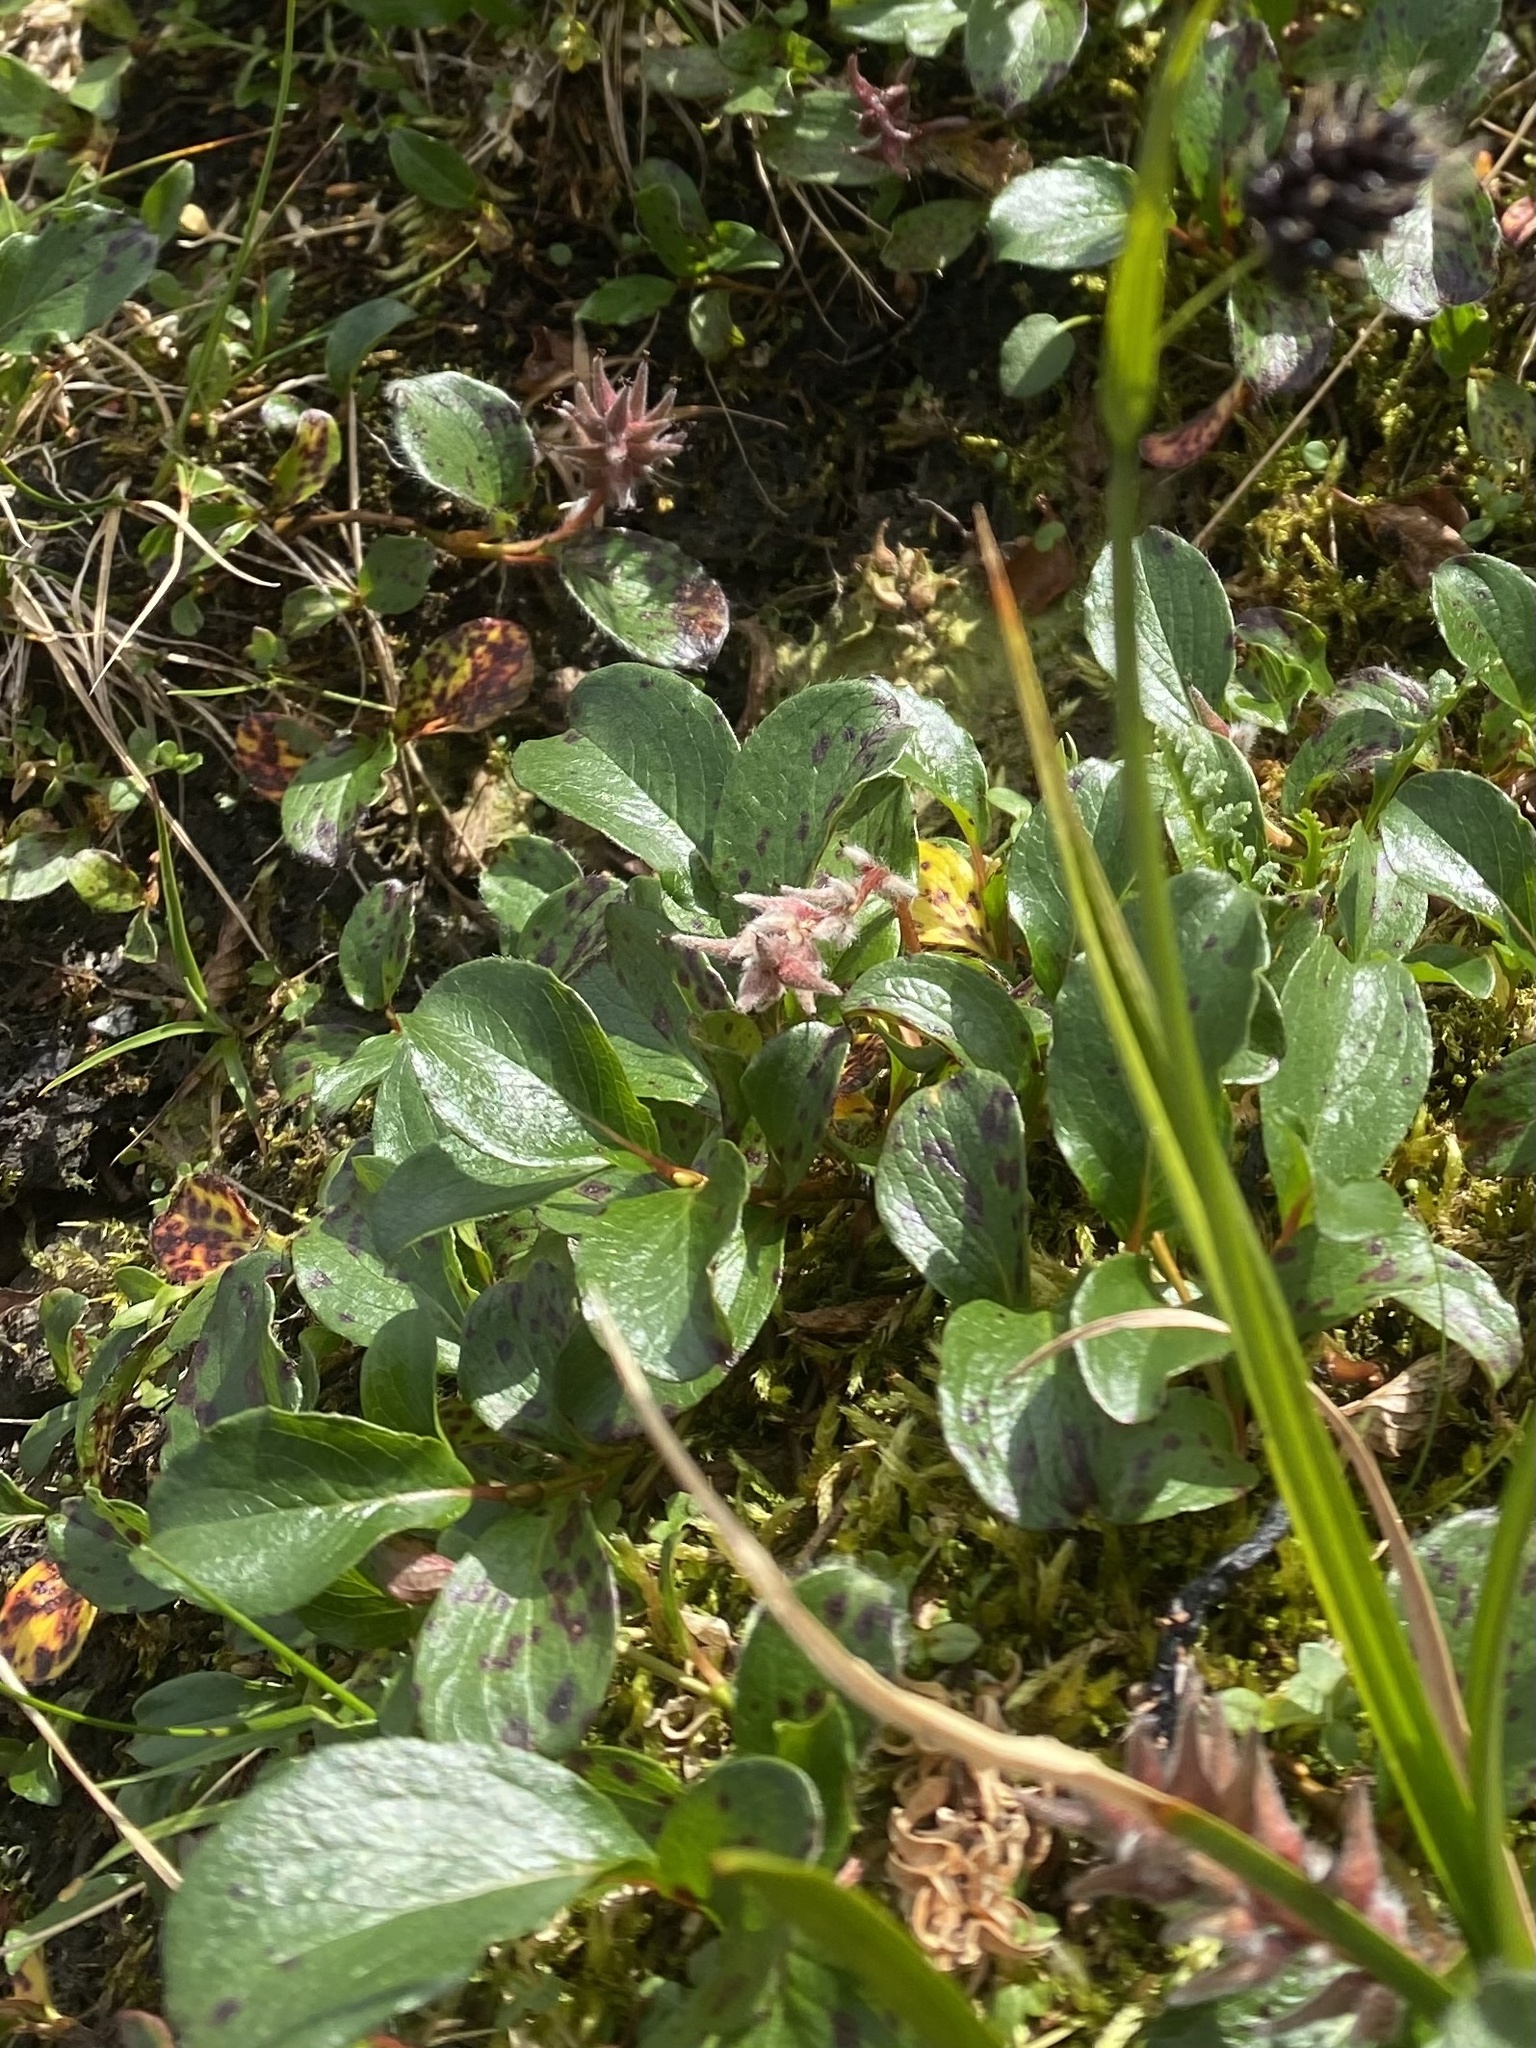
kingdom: Plantae
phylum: Tracheophyta
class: Magnoliopsida
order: Malpighiales
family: Salicaceae
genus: Salix
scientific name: Salix polaris
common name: Polar willow
